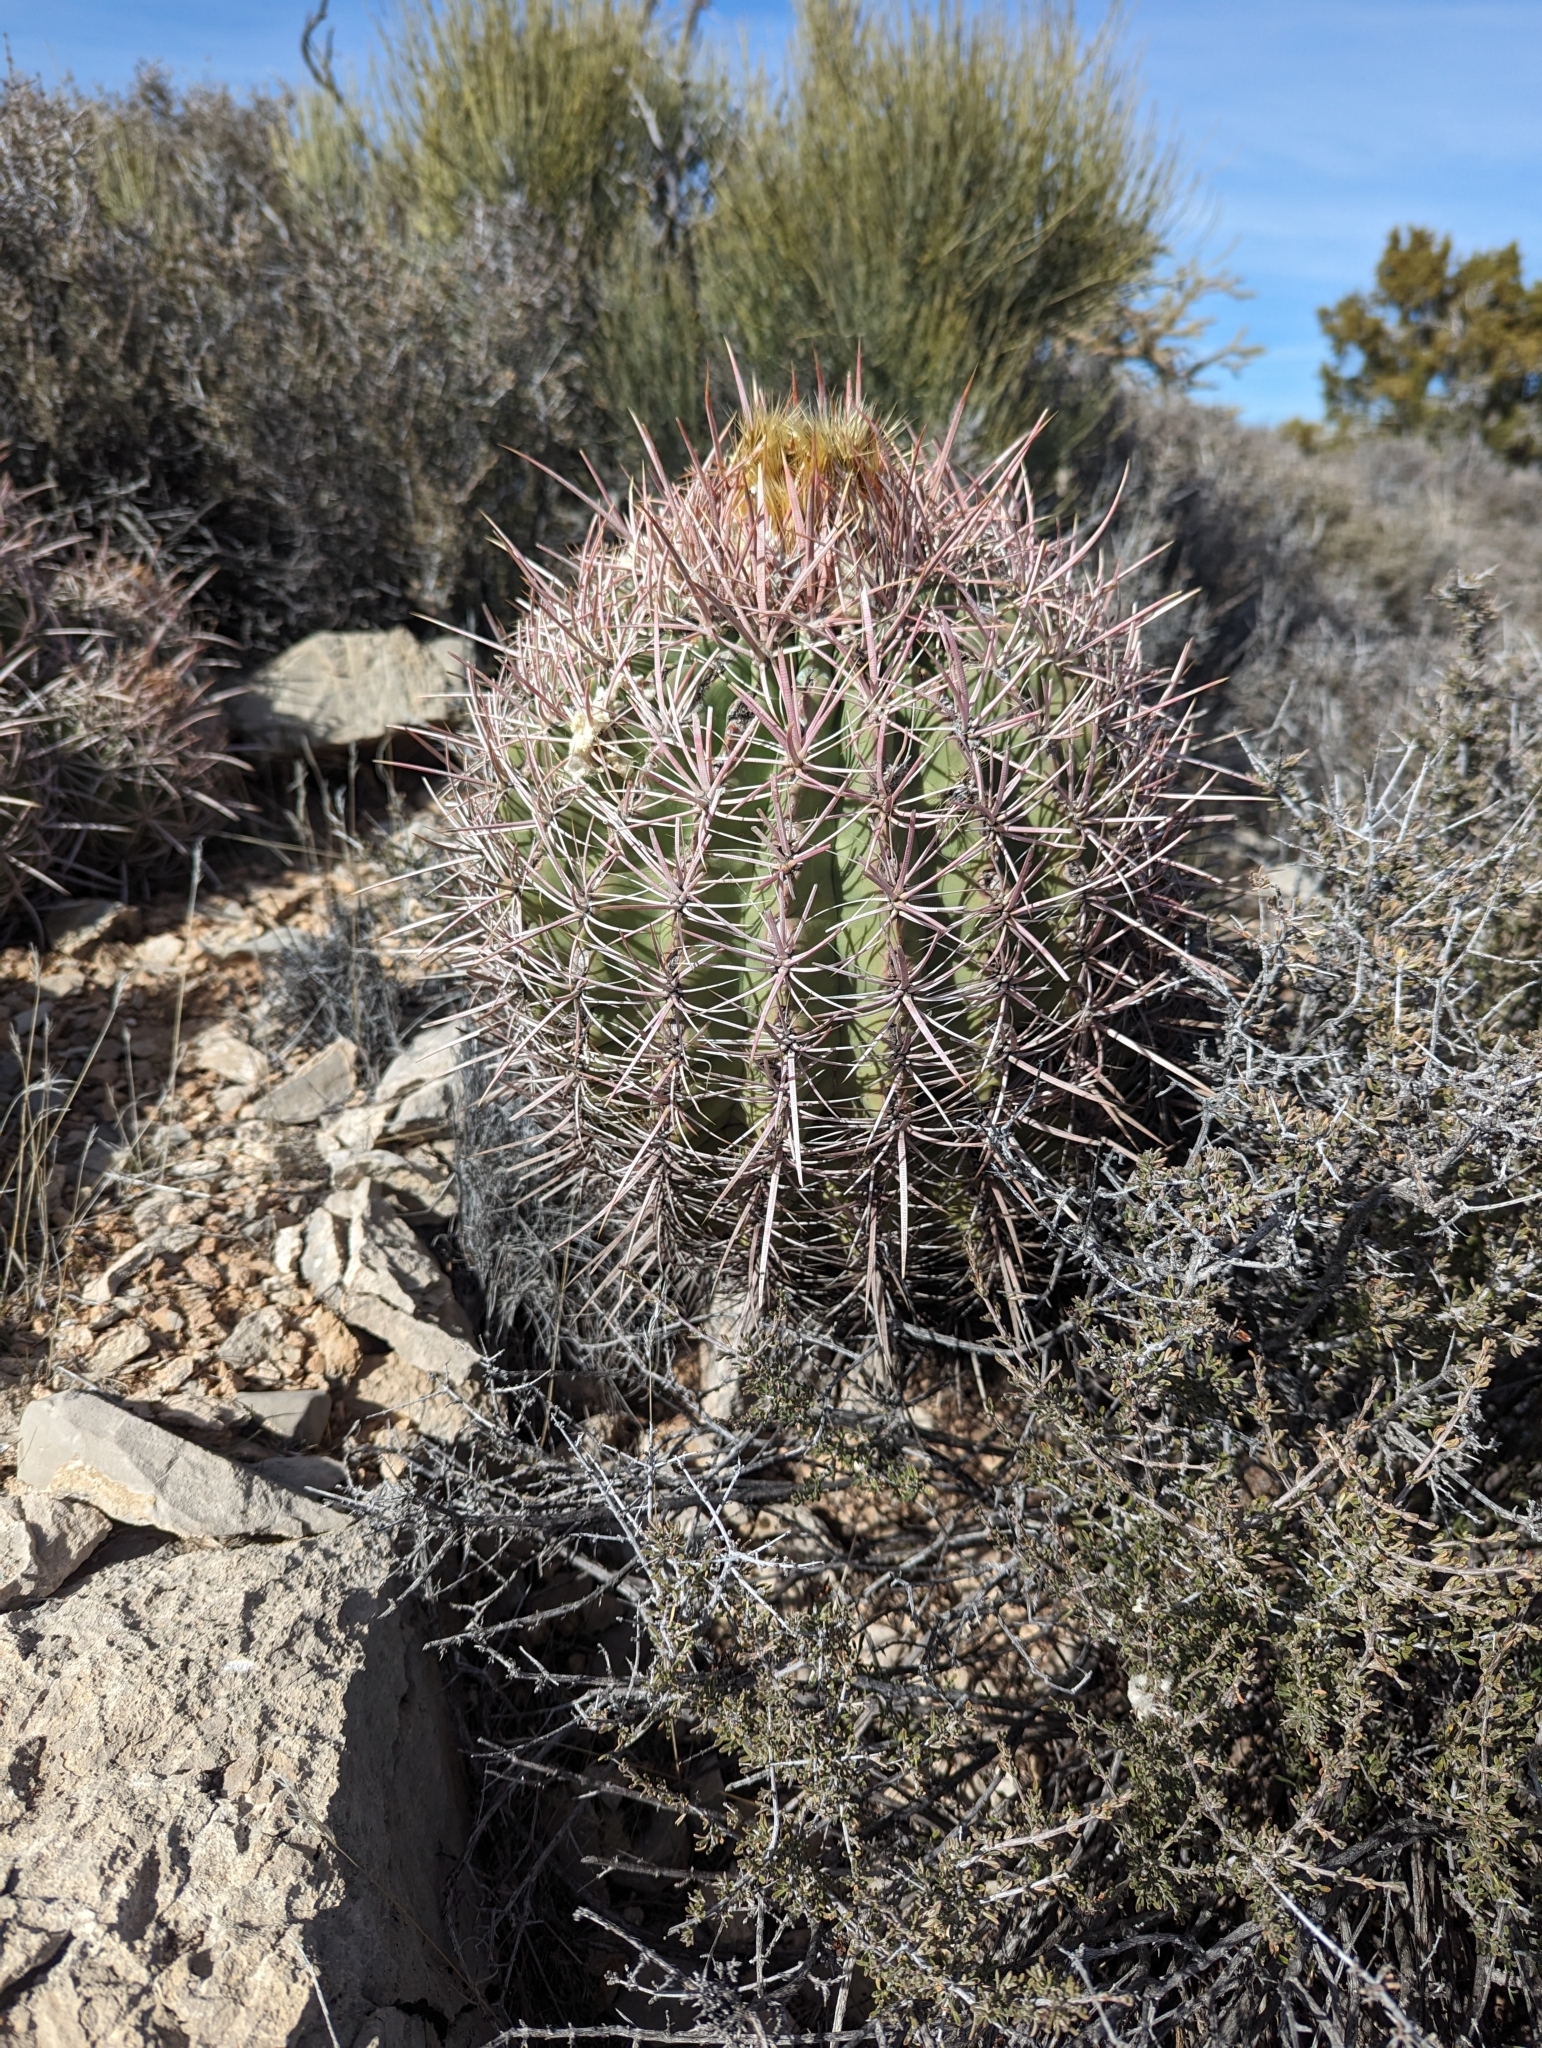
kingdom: Plantae
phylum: Tracheophyta
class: Magnoliopsida
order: Caryophyllales
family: Cactaceae
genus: Echinocactus
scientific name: Echinocactus polycephalus
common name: Cottontop cactus
